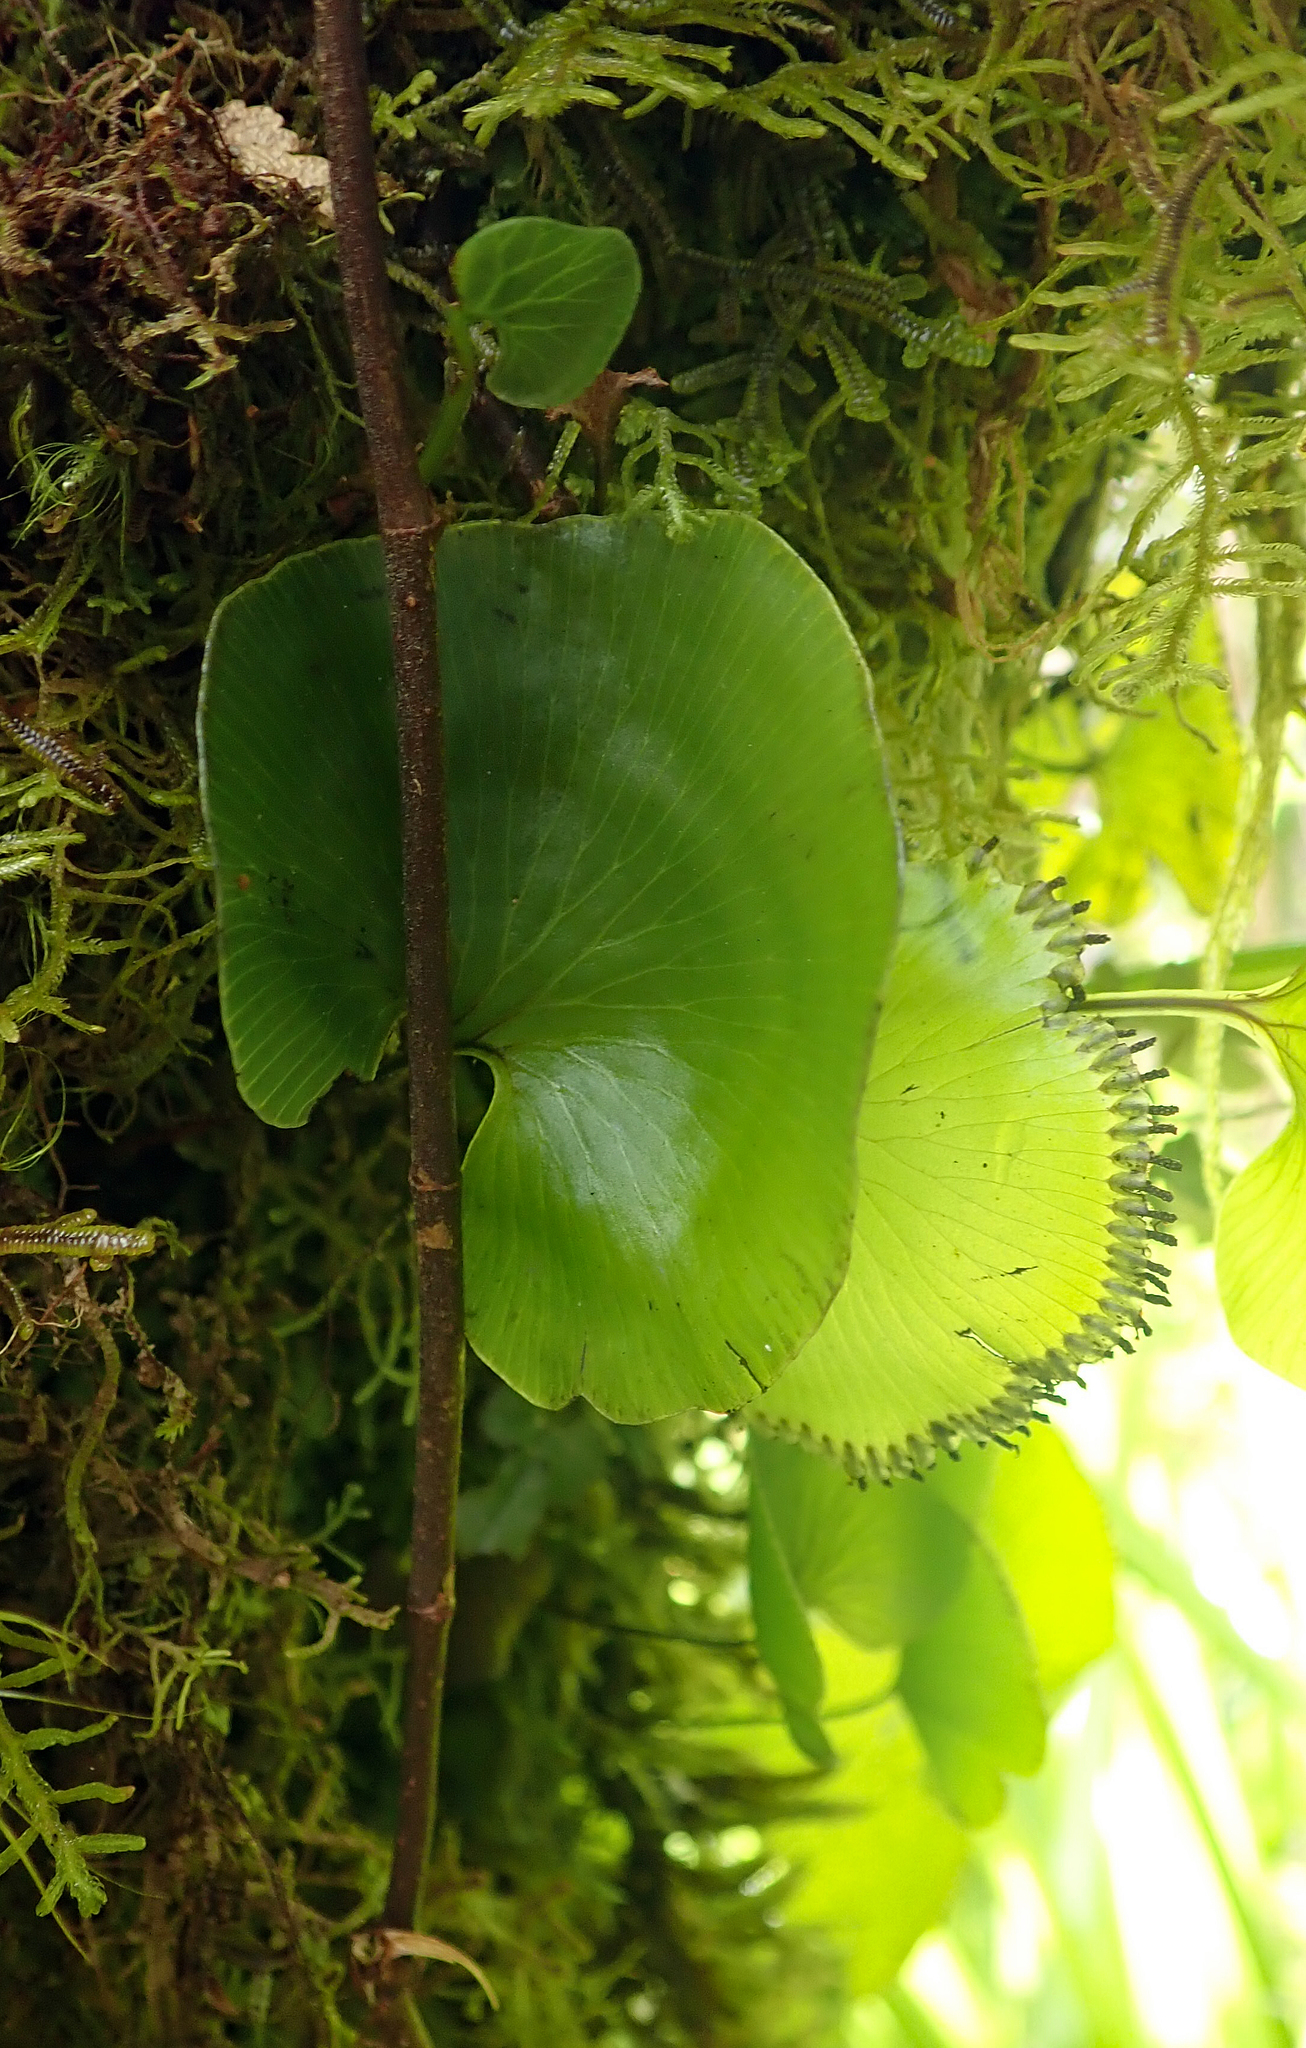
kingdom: Plantae
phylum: Tracheophyta
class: Polypodiopsida
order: Hymenophyllales
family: Hymenophyllaceae
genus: Hymenophyllum
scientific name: Hymenophyllum nephrophyllum
